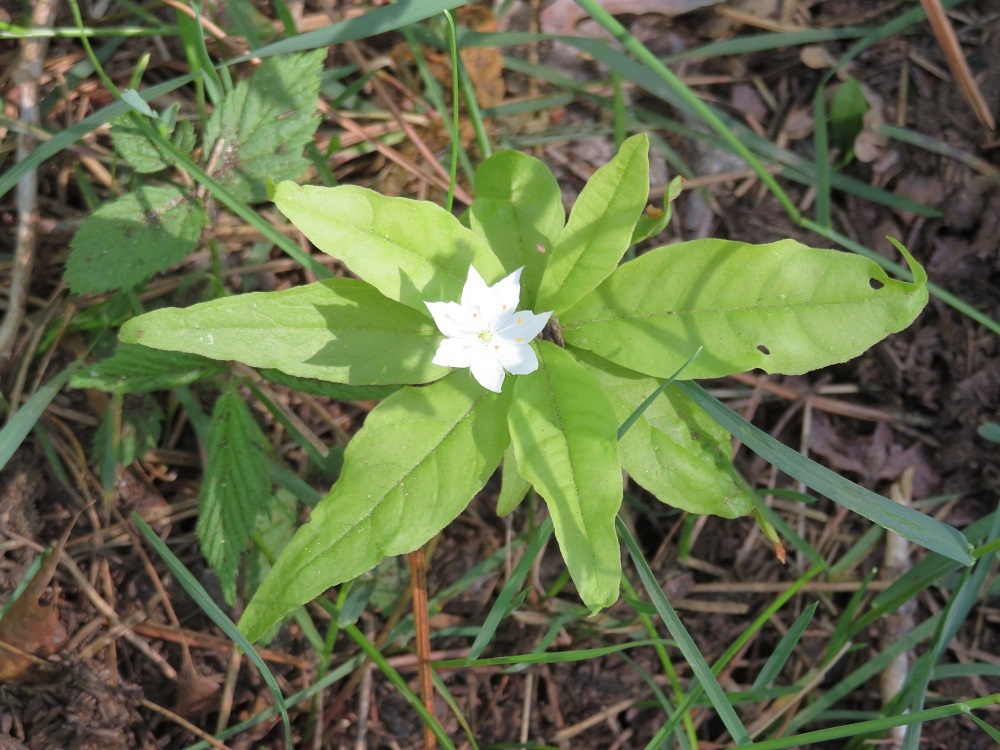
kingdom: Plantae
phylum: Tracheophyta
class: Magnoliopsida
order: Ericales
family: Primulaceae
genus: Lysimachia
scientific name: Lysimachia borealis
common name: American starflower
